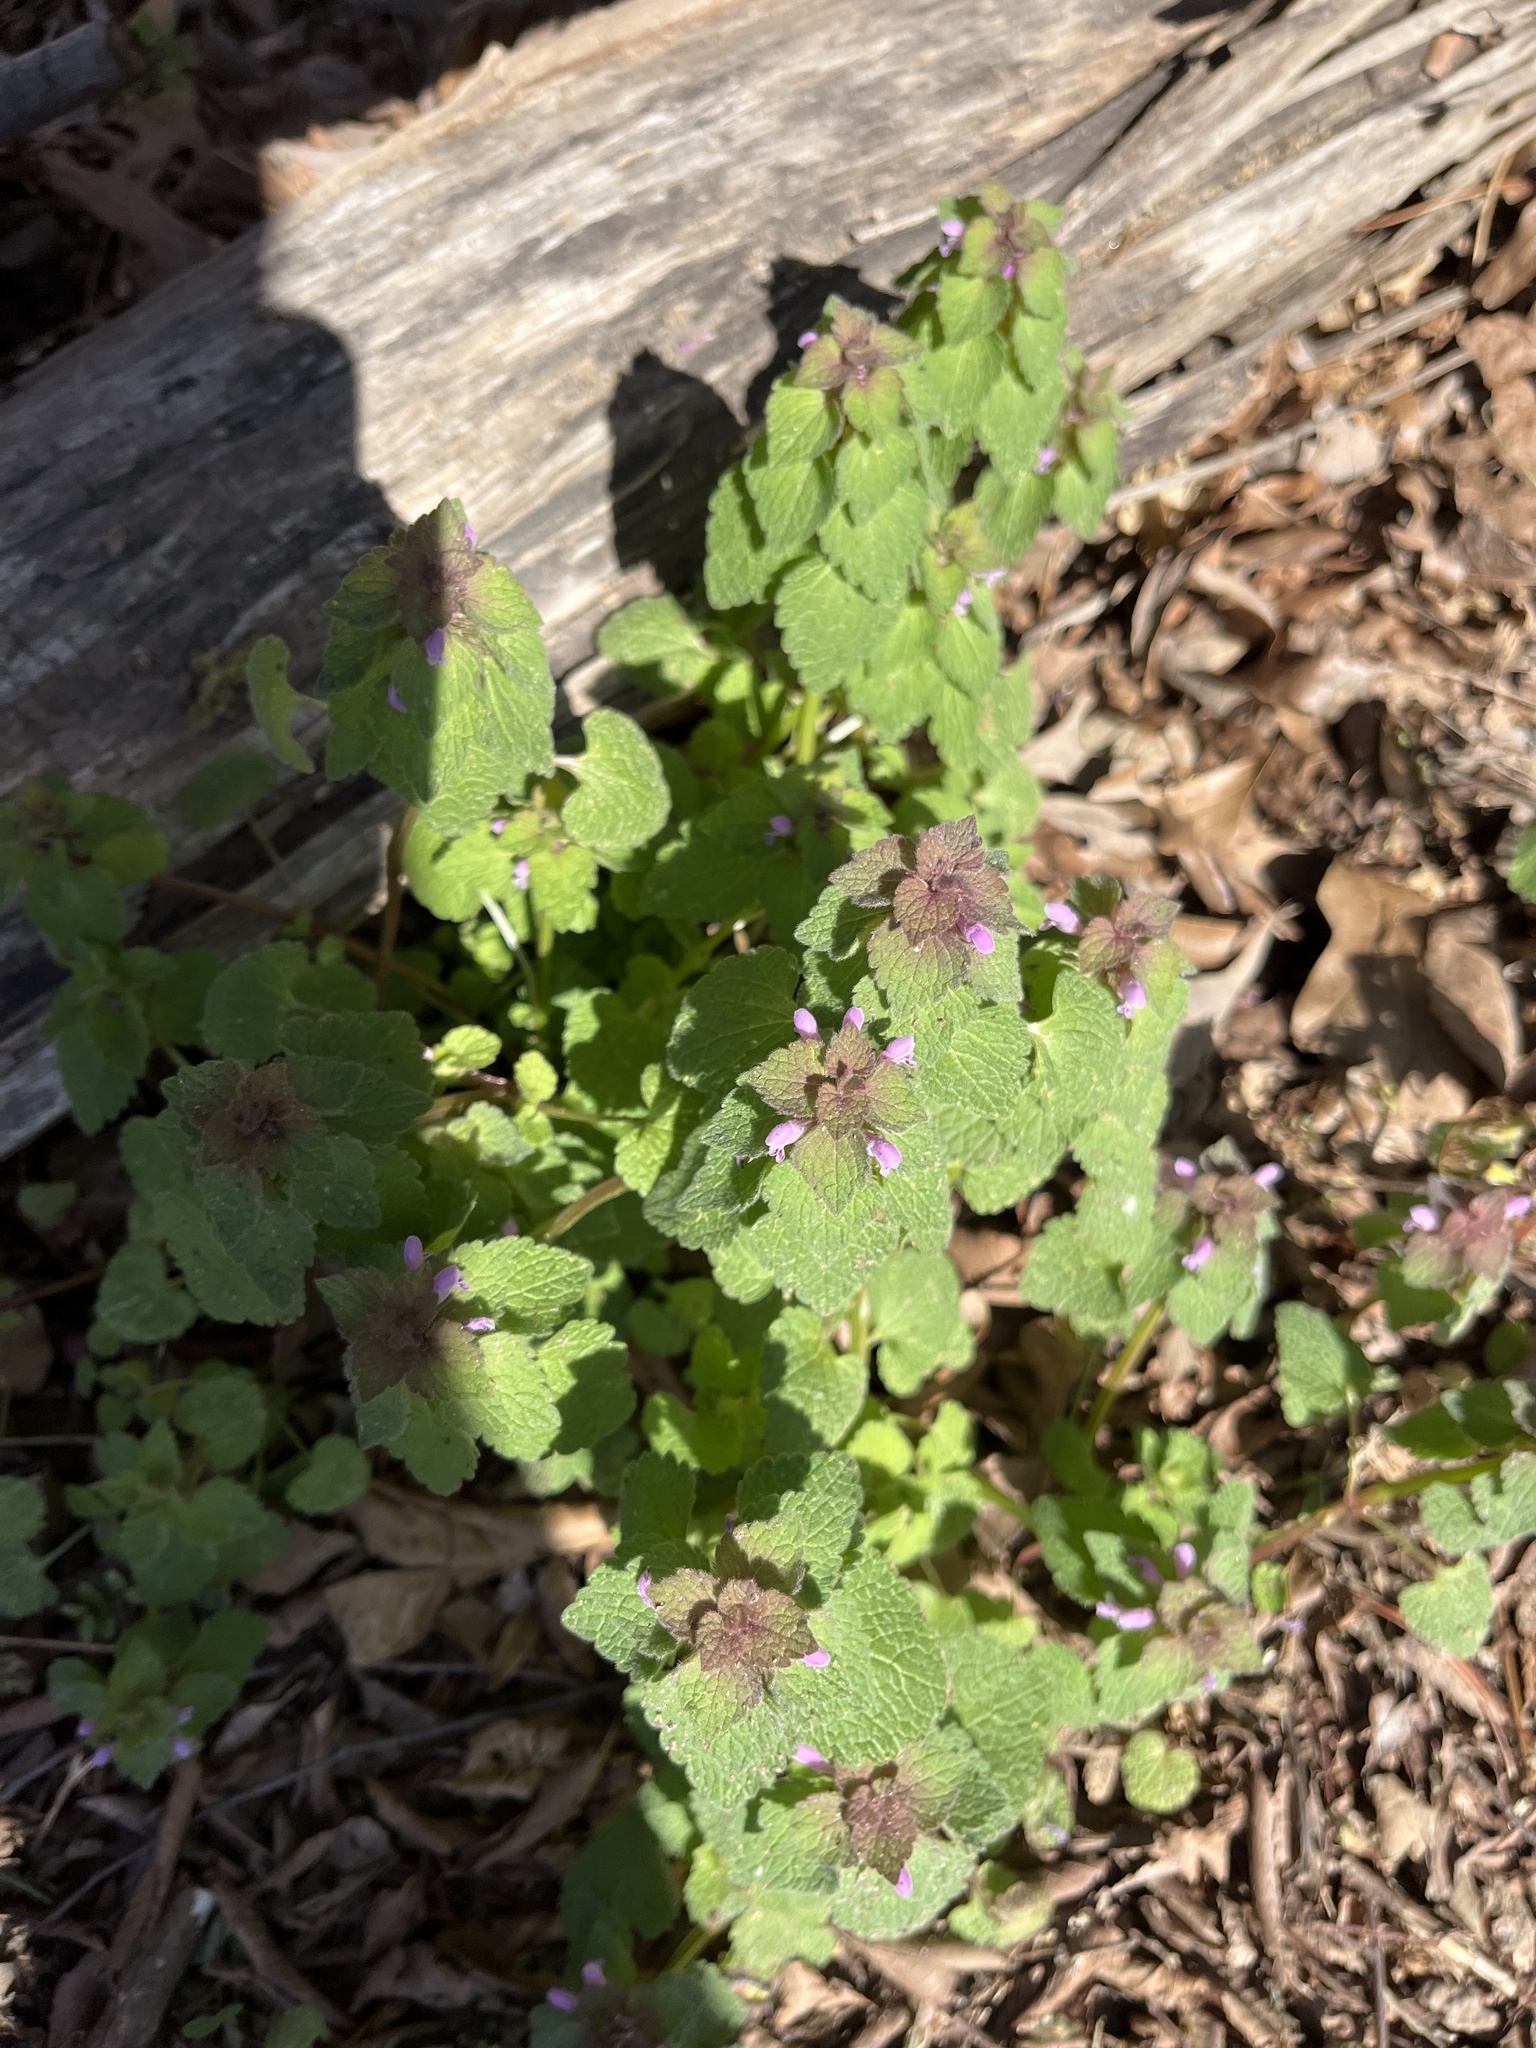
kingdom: Plantae
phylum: Tracheophyta
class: Magnoliopsida
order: Lamiales
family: Lamiaceae
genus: Lamium
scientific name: Lamium purpureum
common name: Red dead-nettle
